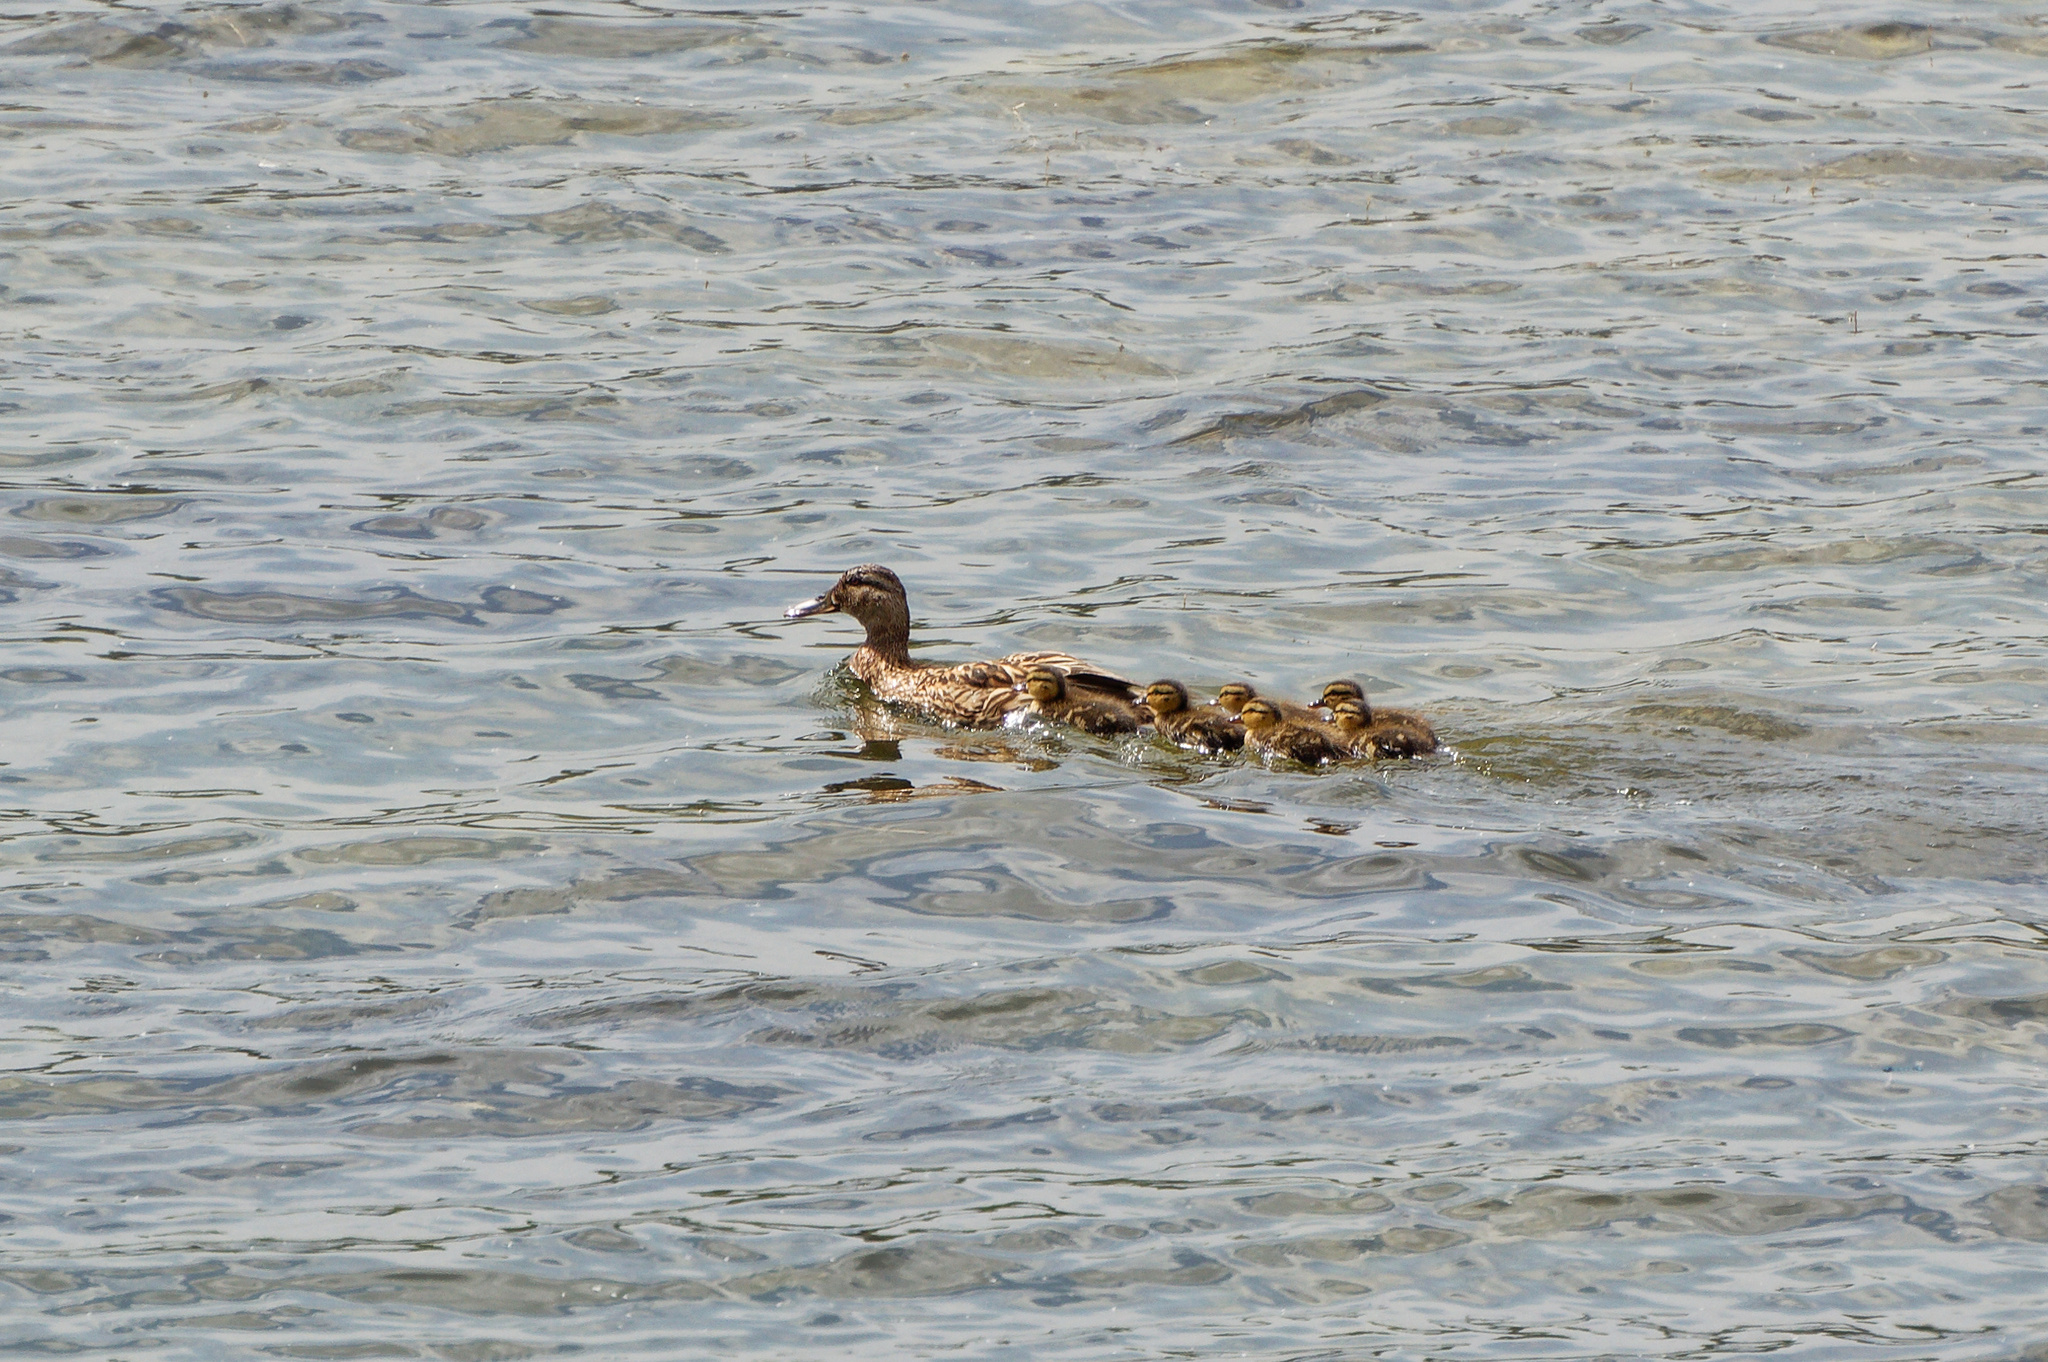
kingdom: Animalia
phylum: Chordata
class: Aves
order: Anseriformes
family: Anatidae
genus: Anas
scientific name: Anas platyrhynchos
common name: Mallard
